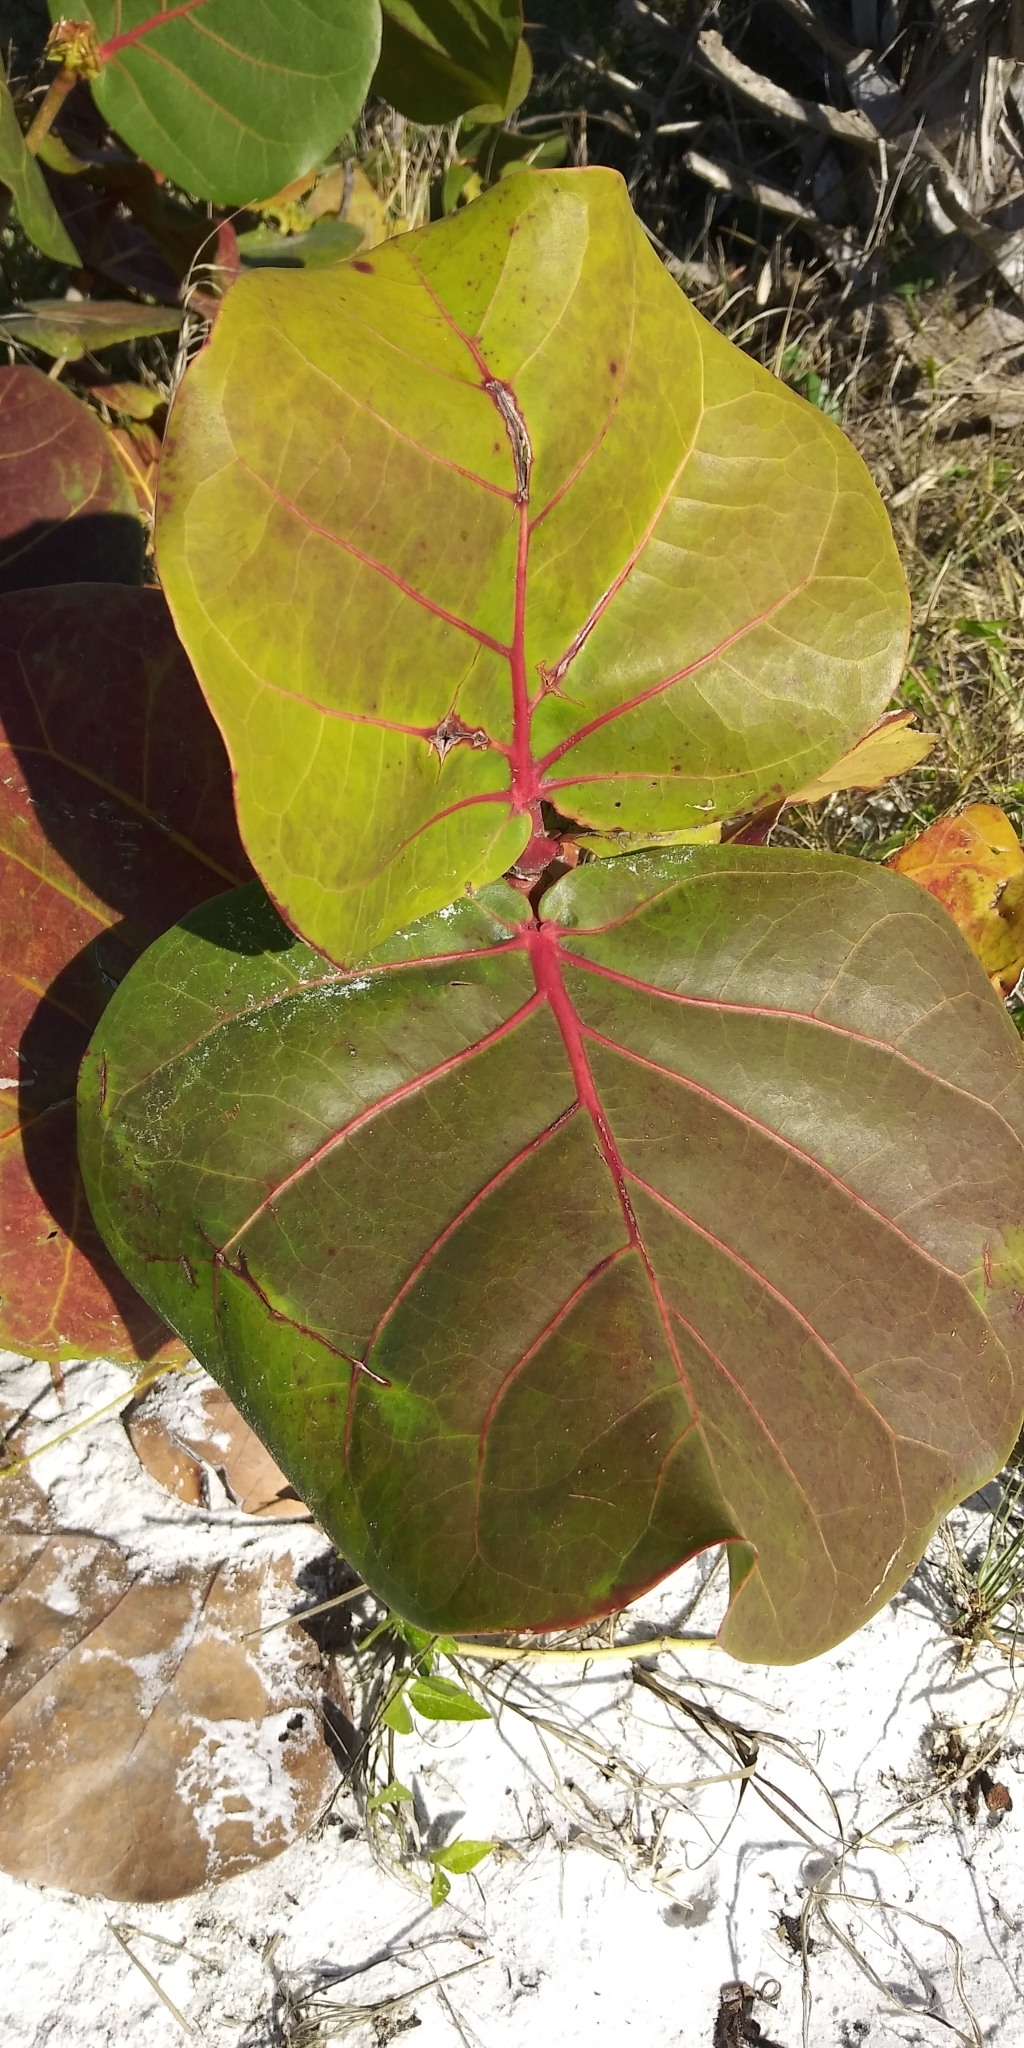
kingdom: Plantae
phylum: Tracheophyta
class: Magnoliopsida
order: Caryophyllales
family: Polygonaceae
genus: Coccoloba
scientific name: Coccoloba uvifera
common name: Seagrape
